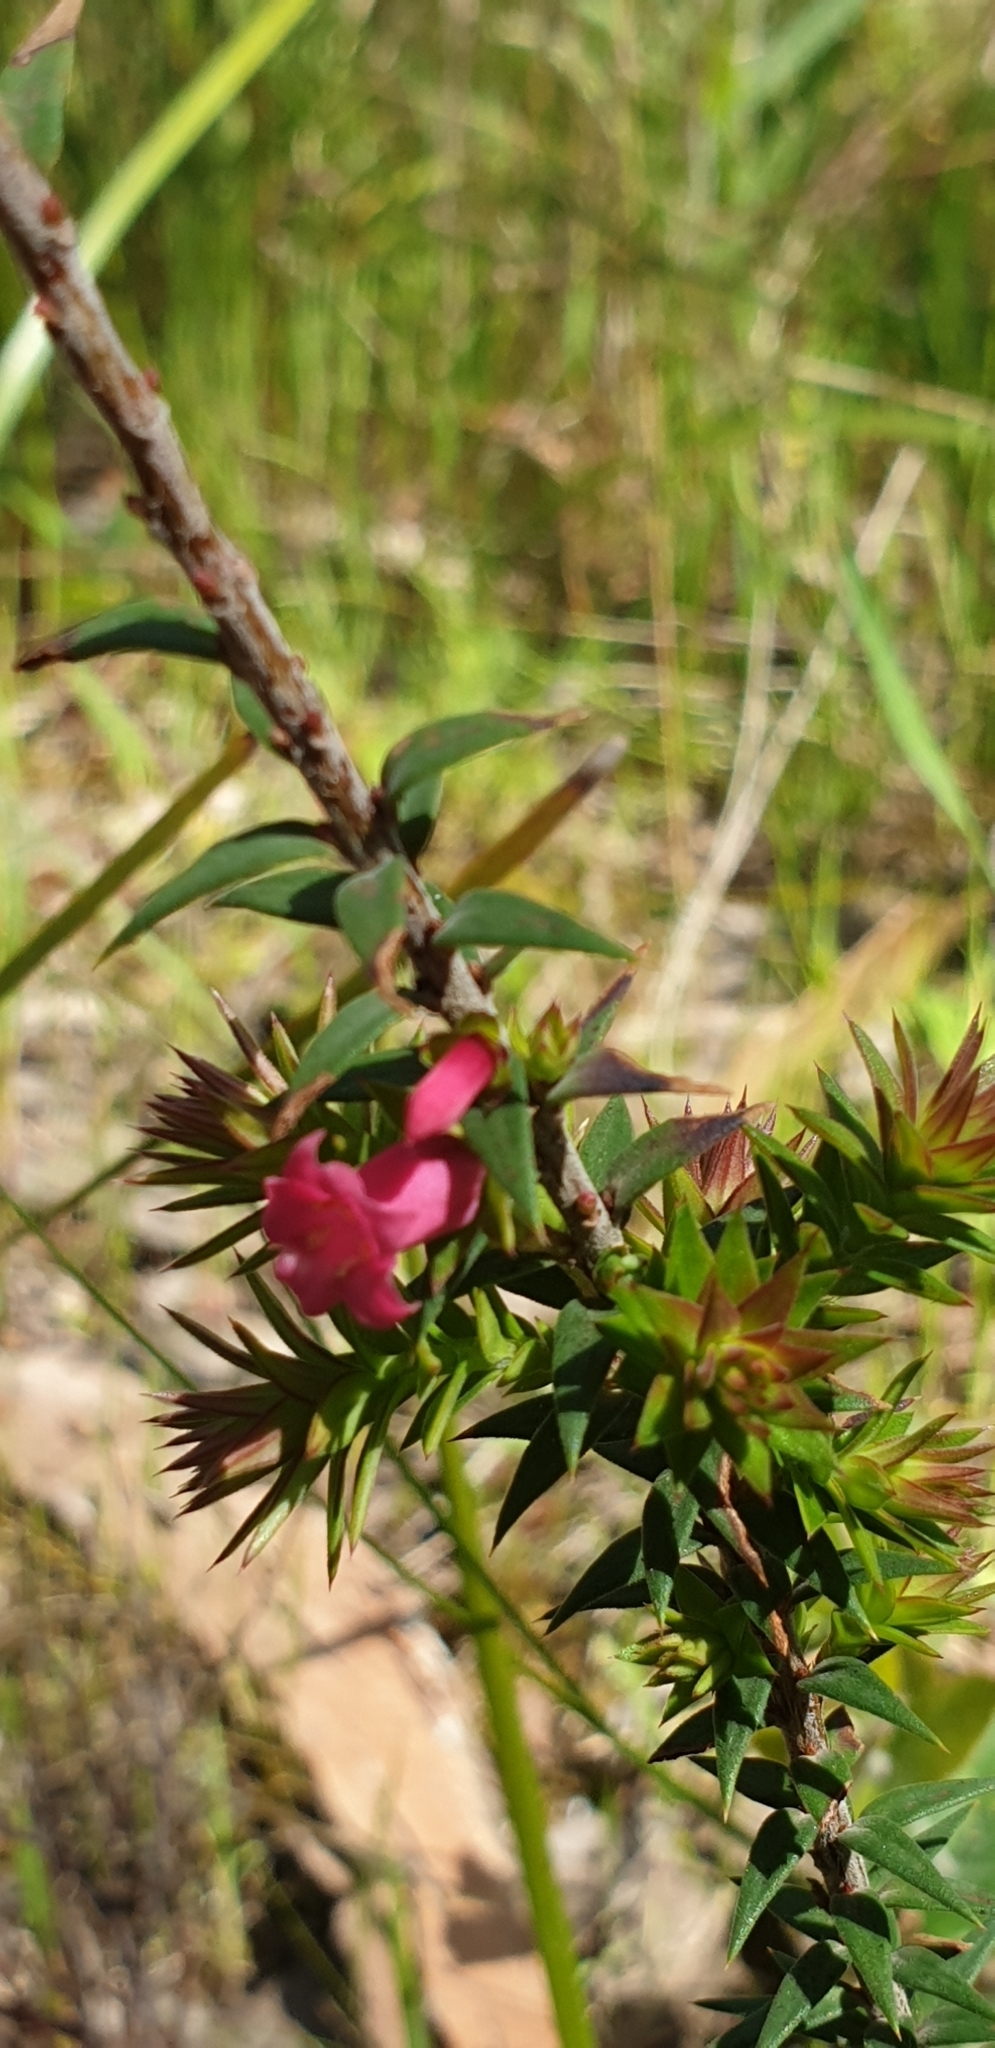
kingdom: Plantae
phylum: Tracheophyta
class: Magnoliopsida
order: Ericales
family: Ericaceae
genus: Epacris
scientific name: Epacris impressa
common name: Common-heath
